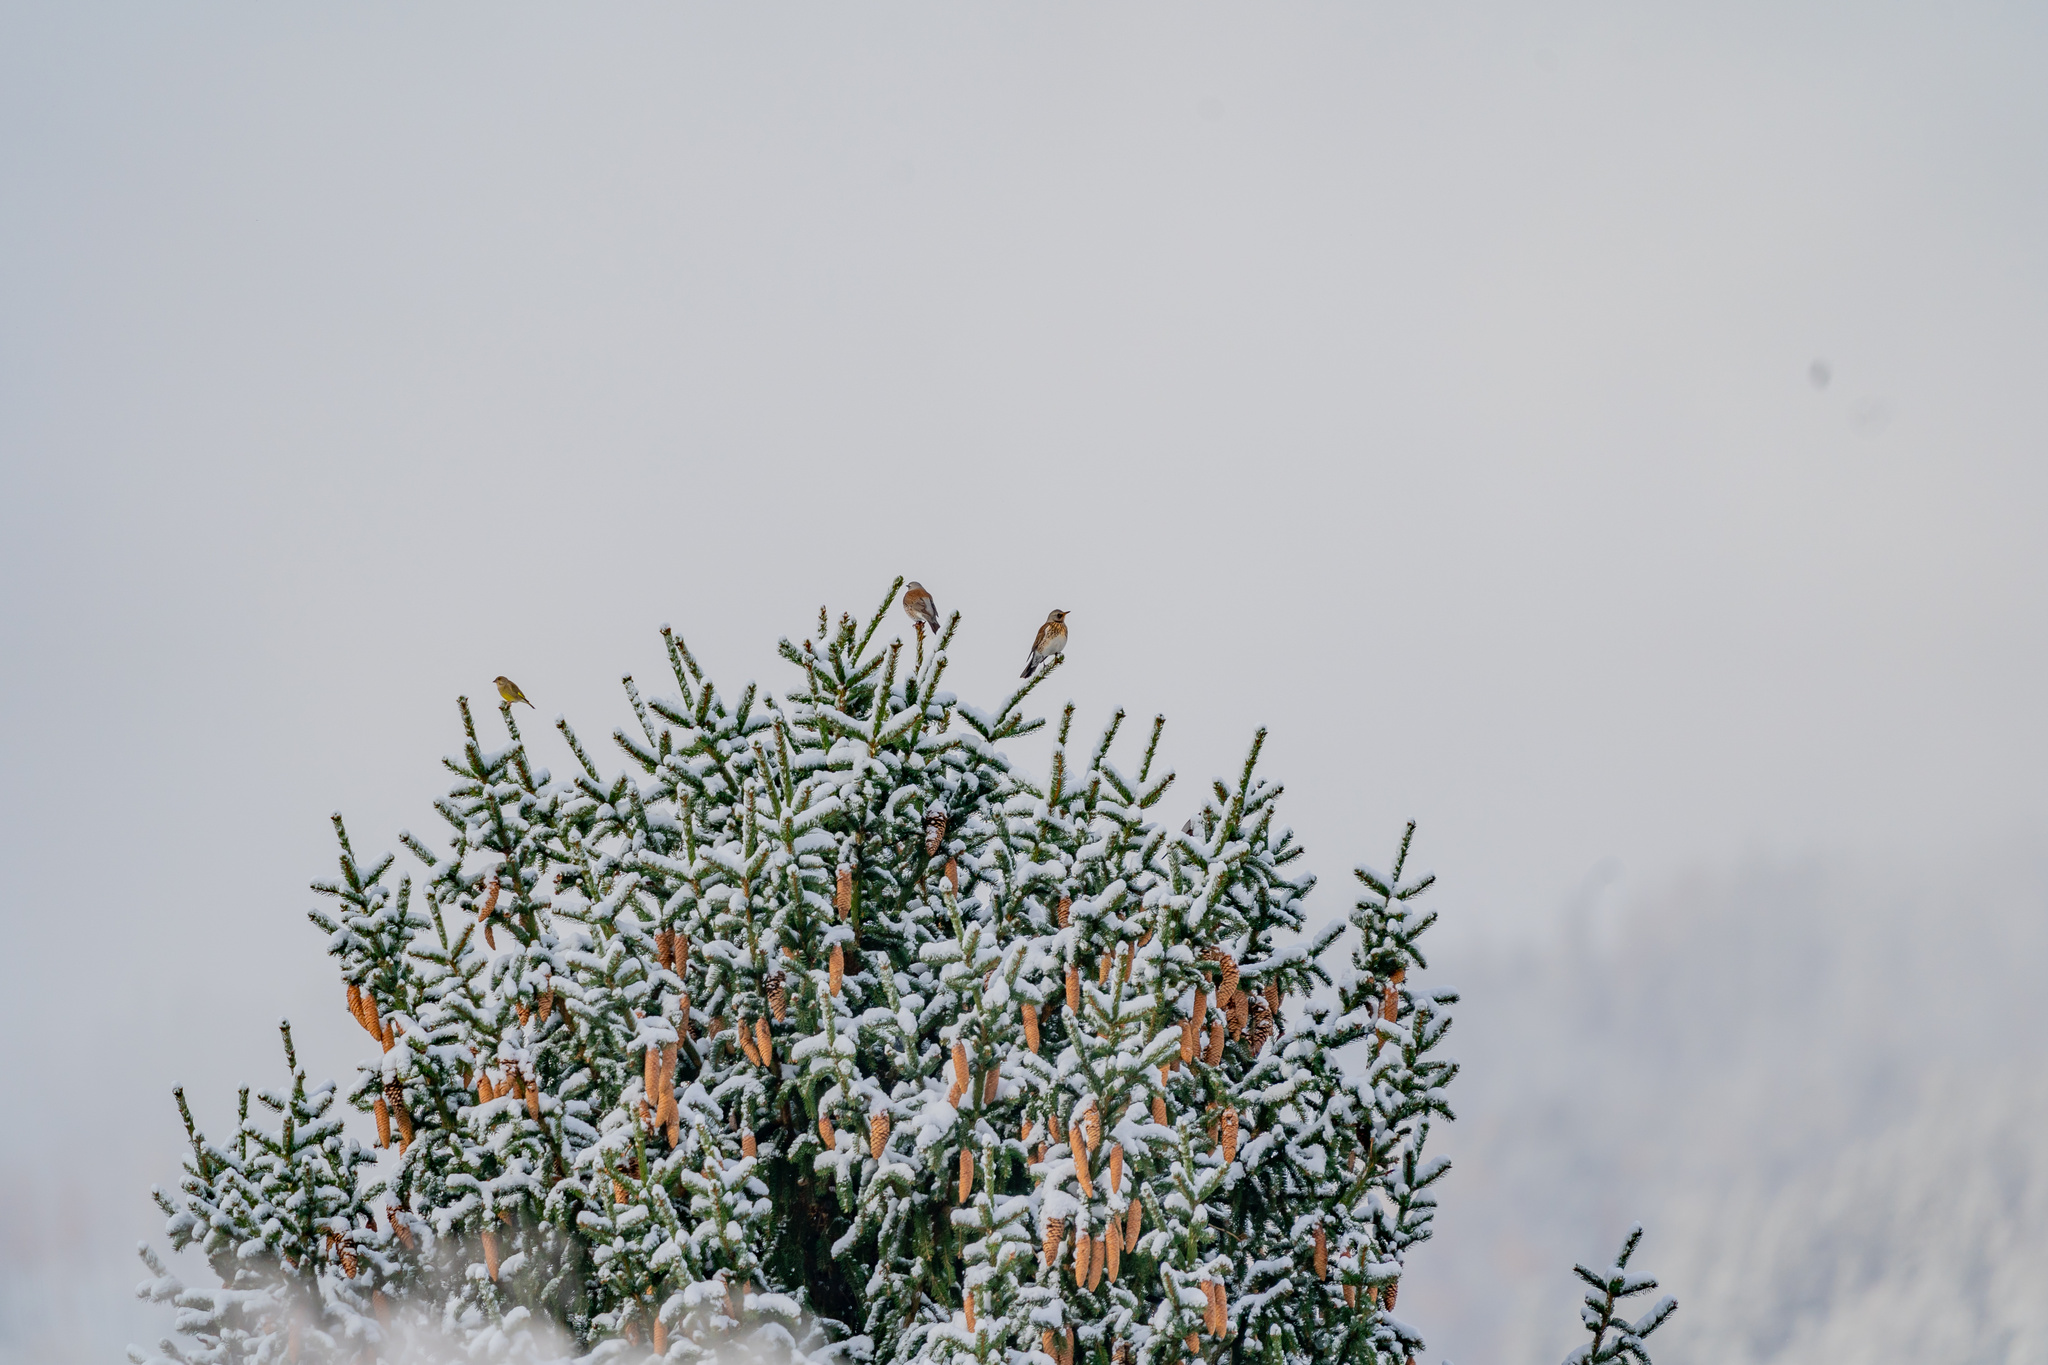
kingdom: Animalia
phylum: Chordata
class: Aves
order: Passeriformes
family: Turdidae
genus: Turdus
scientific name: Turdus pilaris
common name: Fieldfare
